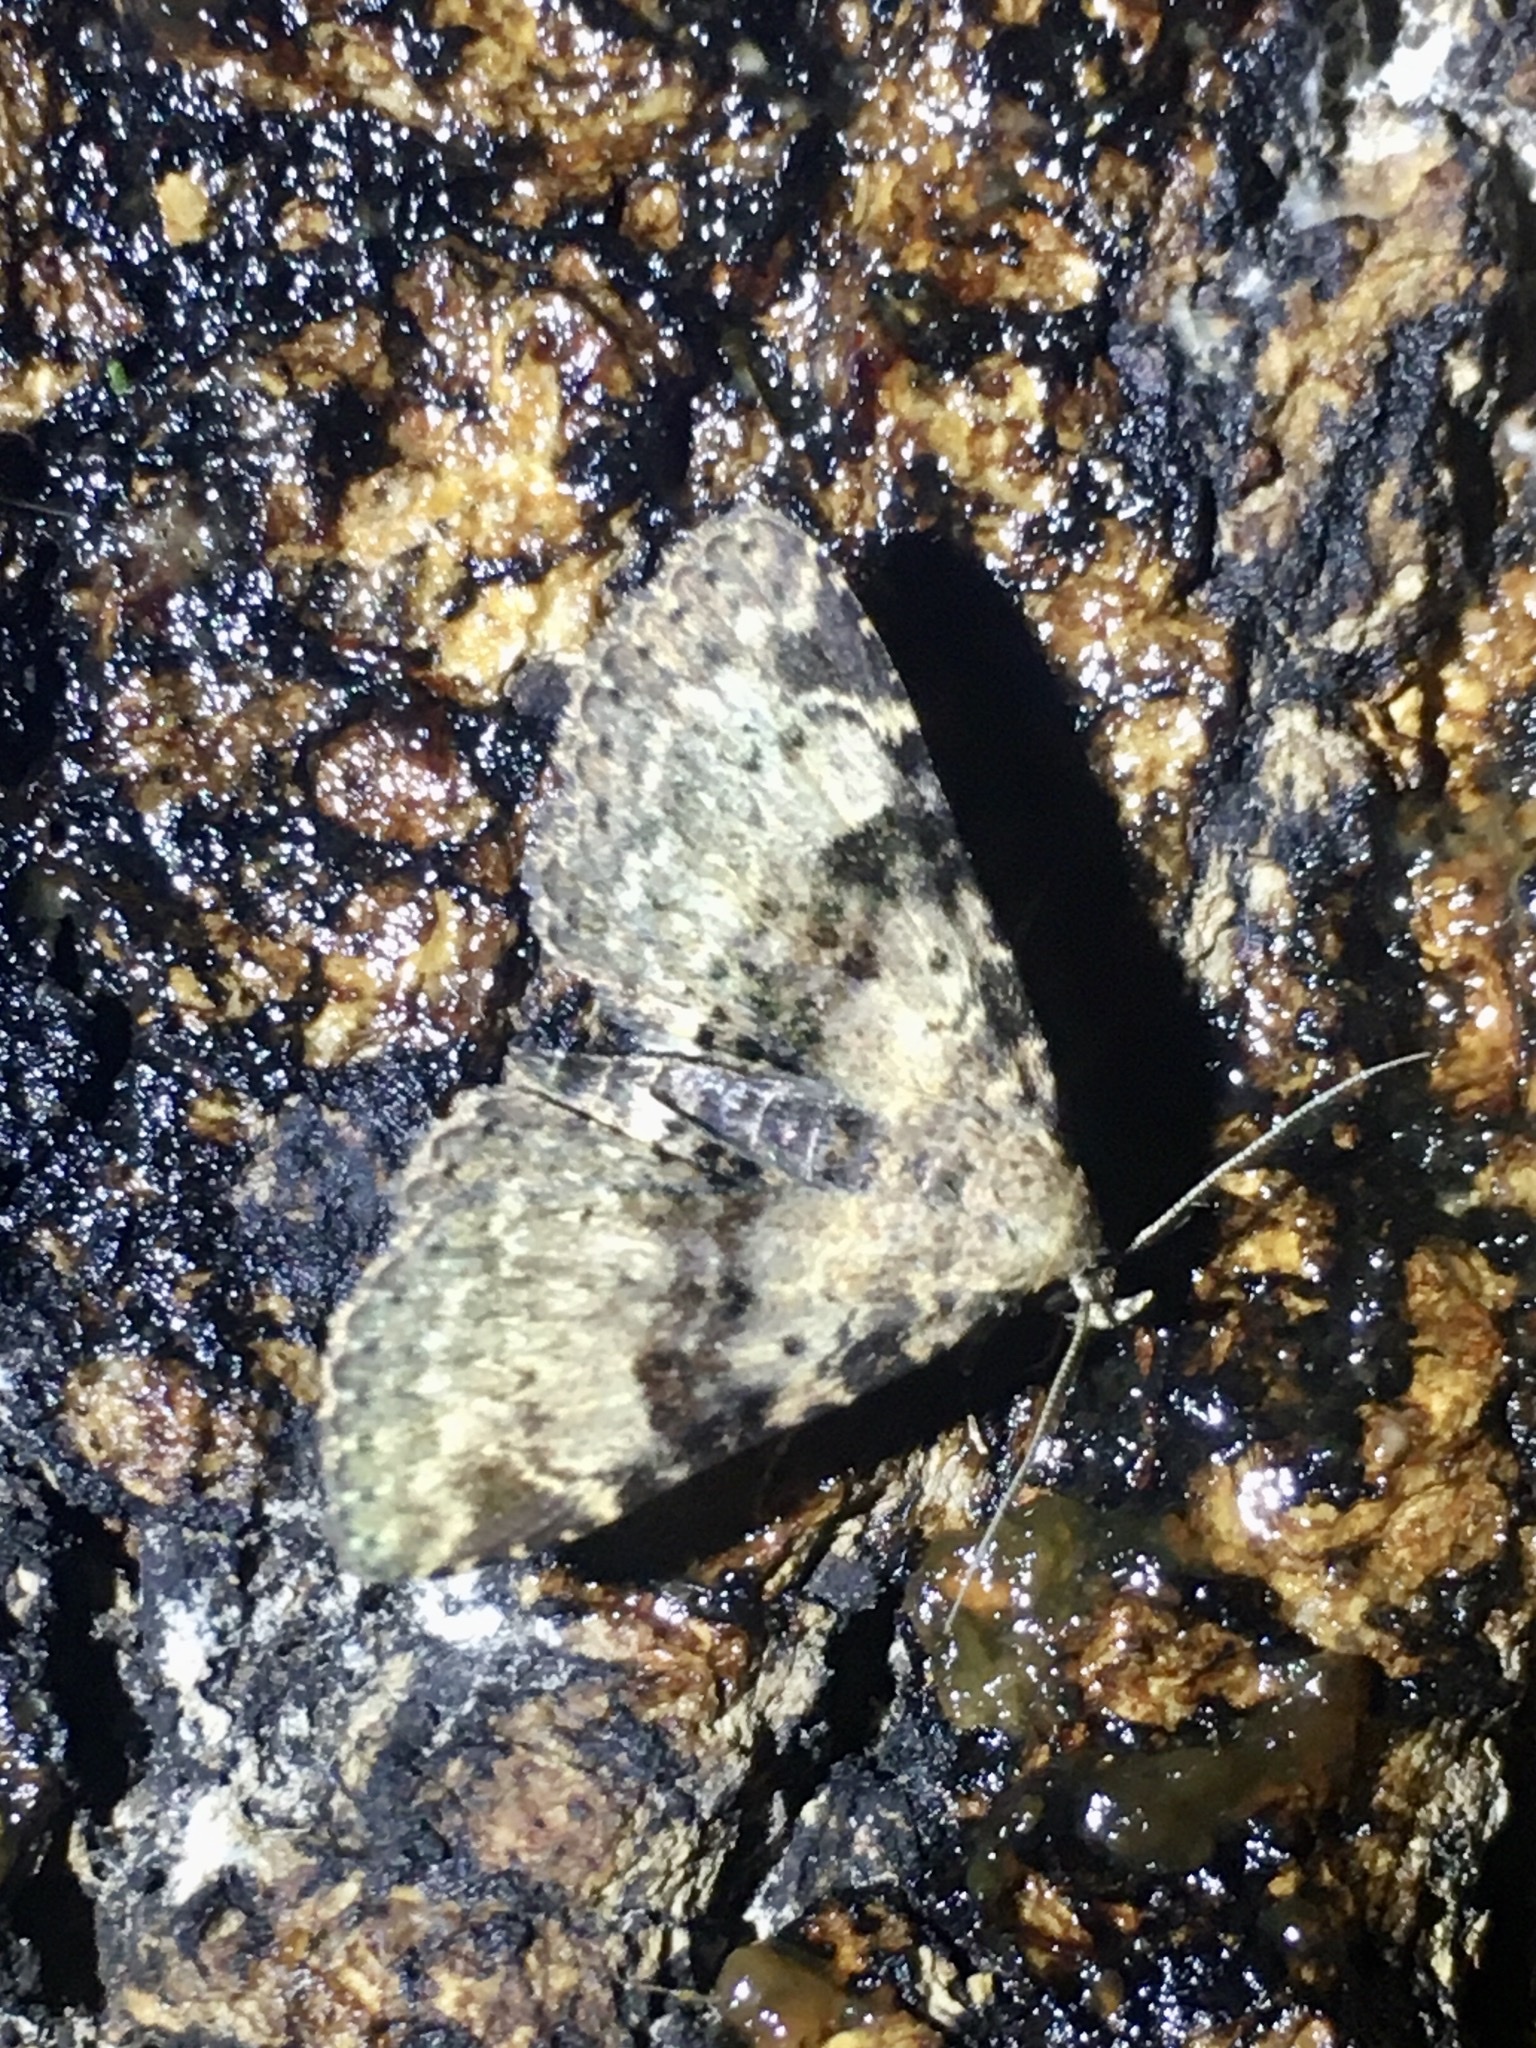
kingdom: Animalia
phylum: Arthropoda
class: Insecta
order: Lepidoptera
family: Erebidae
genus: Metalectra
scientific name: Metalectra quadrisignata
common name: Four-spotted fungus moth
